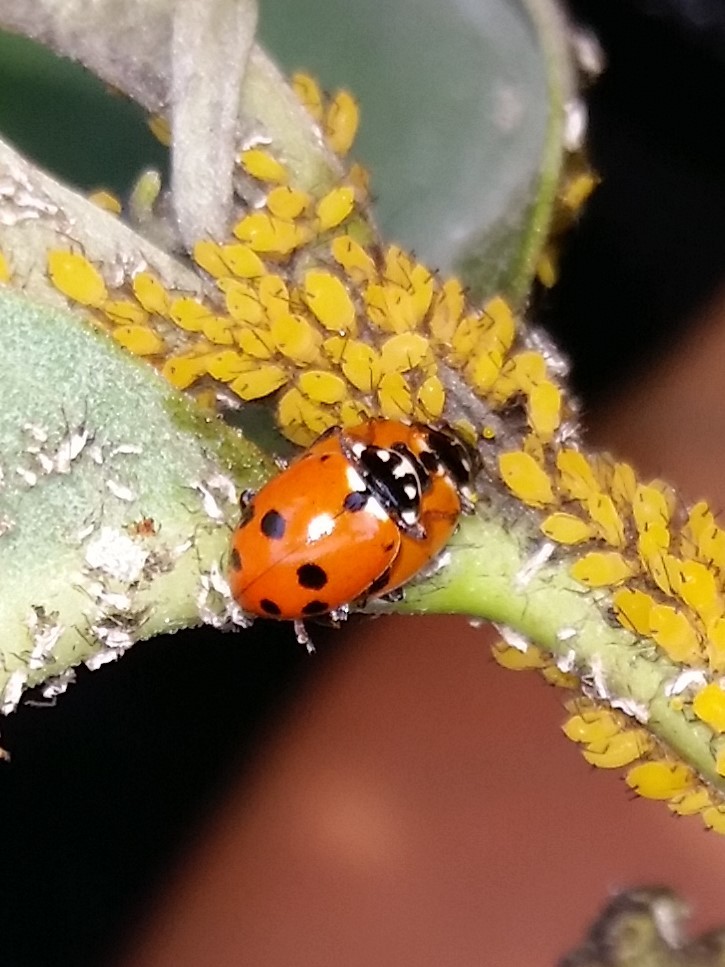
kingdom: Animalia
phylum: Arthropoda
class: Insecta
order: Coleoptera
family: Coccinellidae
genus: Hippodamia
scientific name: Hippodamia variegata
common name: Ladybird beetle
